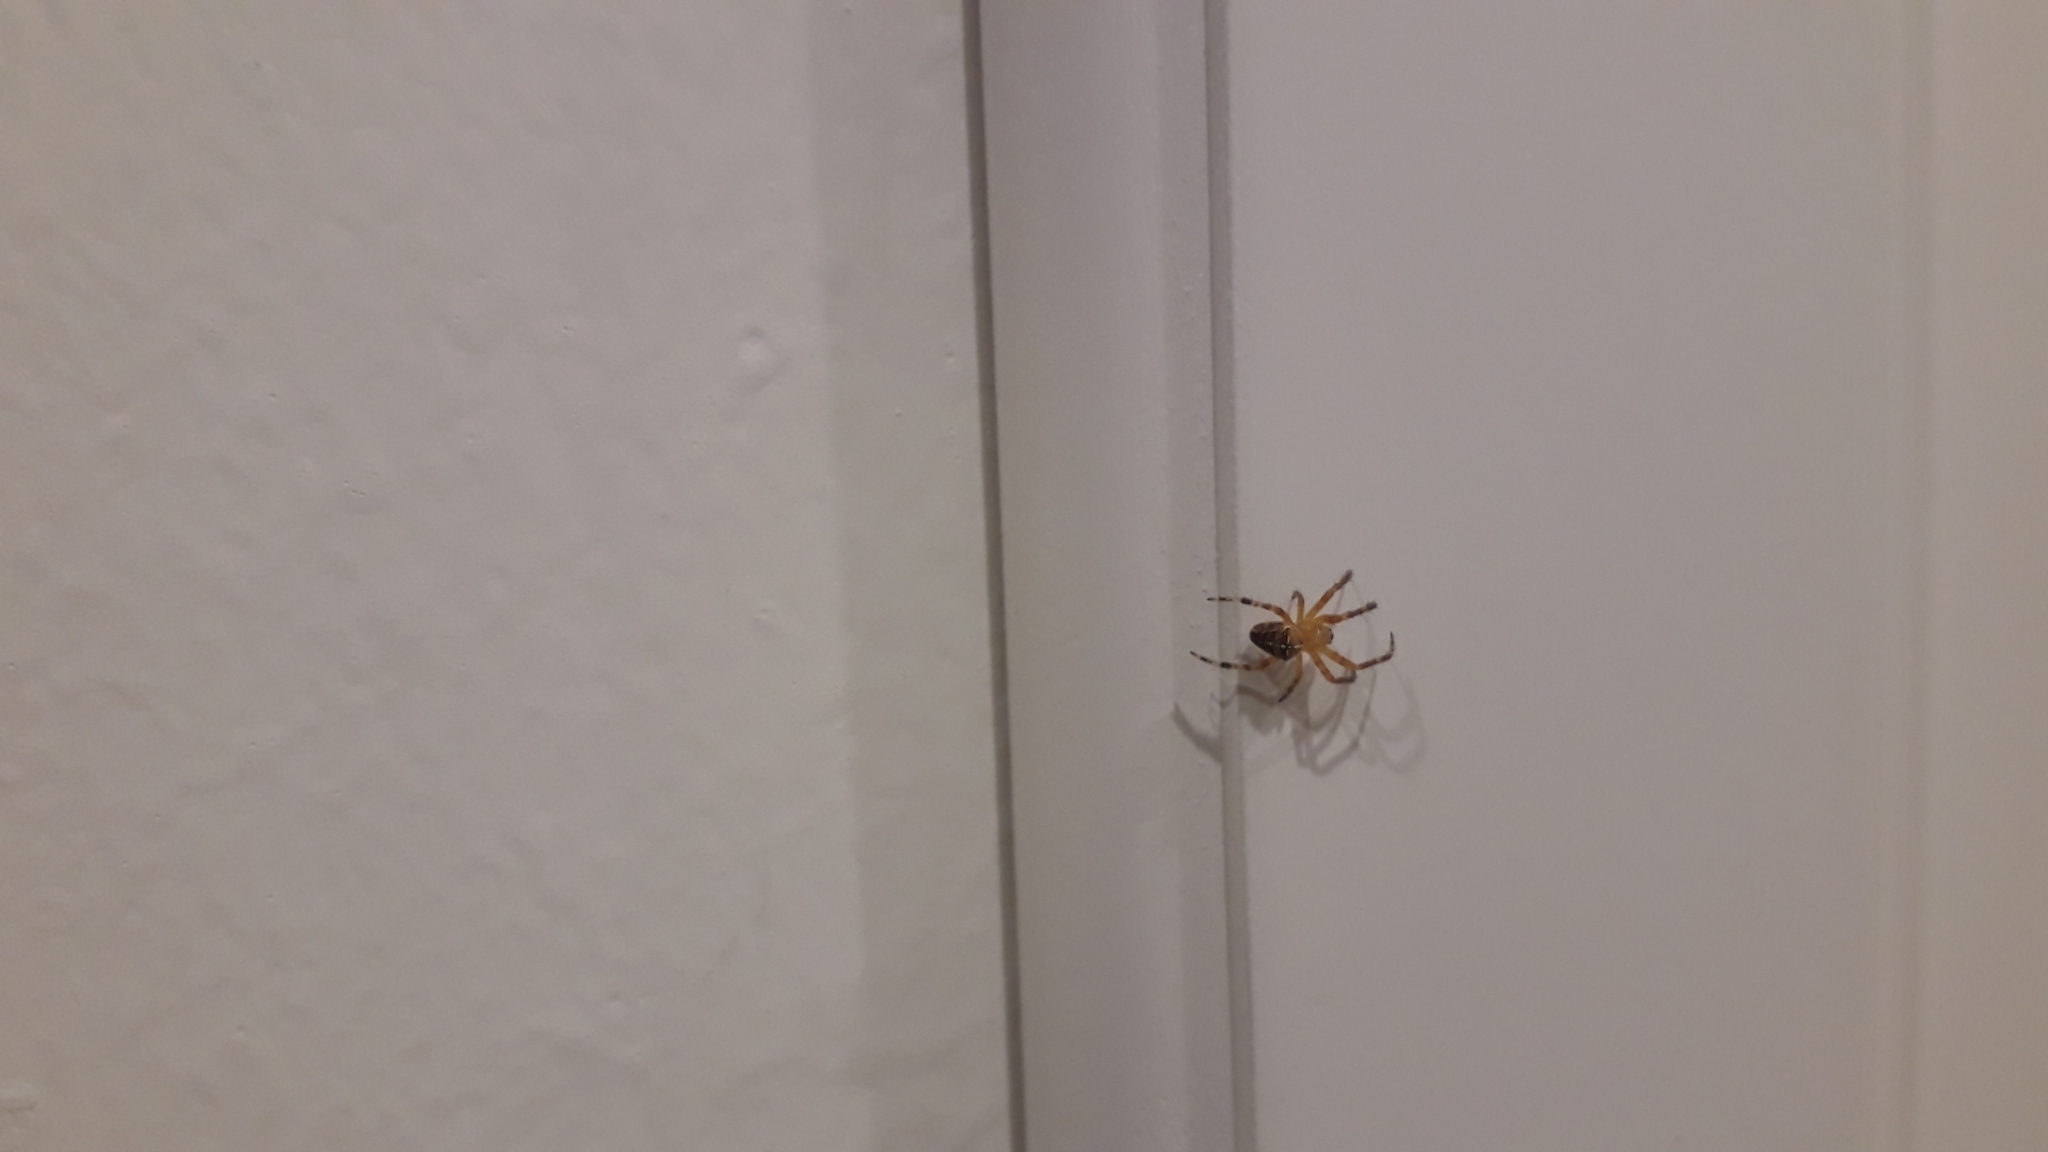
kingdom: Animalia
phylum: Arthropoda
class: Arachnida
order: Araneae
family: Araneidae
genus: Araneus
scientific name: Araneus diadematus
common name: Cross orbweaver
